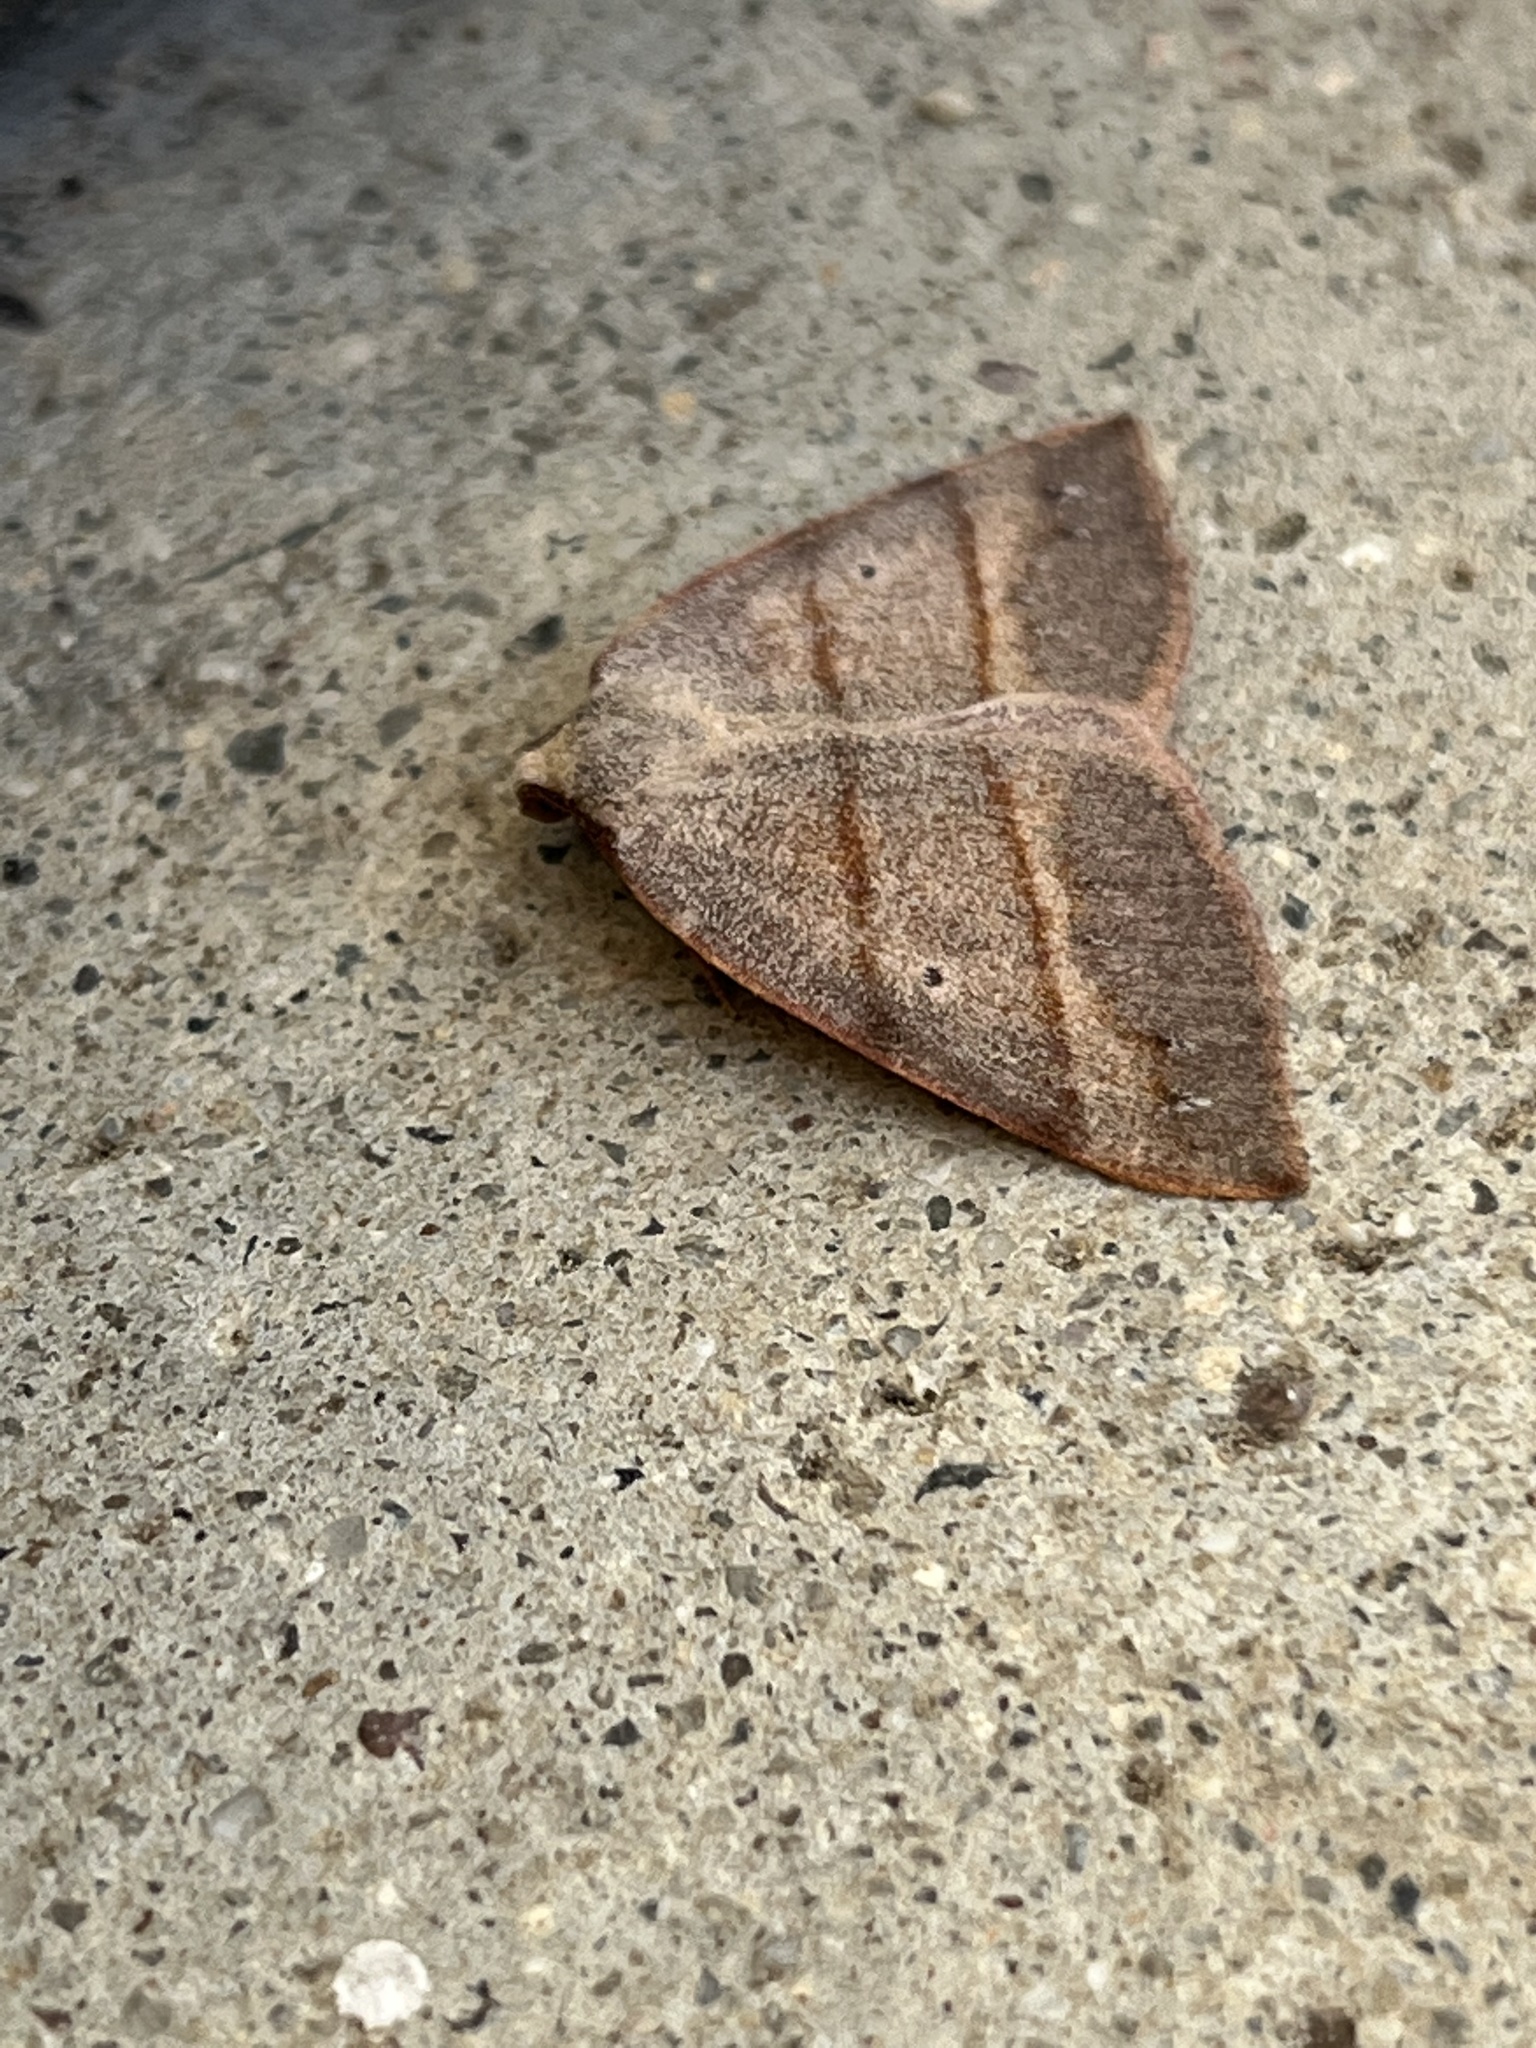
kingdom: Animalia
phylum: Arthropoda
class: Insecta
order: Lepidoptera
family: Geometridae
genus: Drepanulatrix
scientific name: Drepanulatrix bifilata
